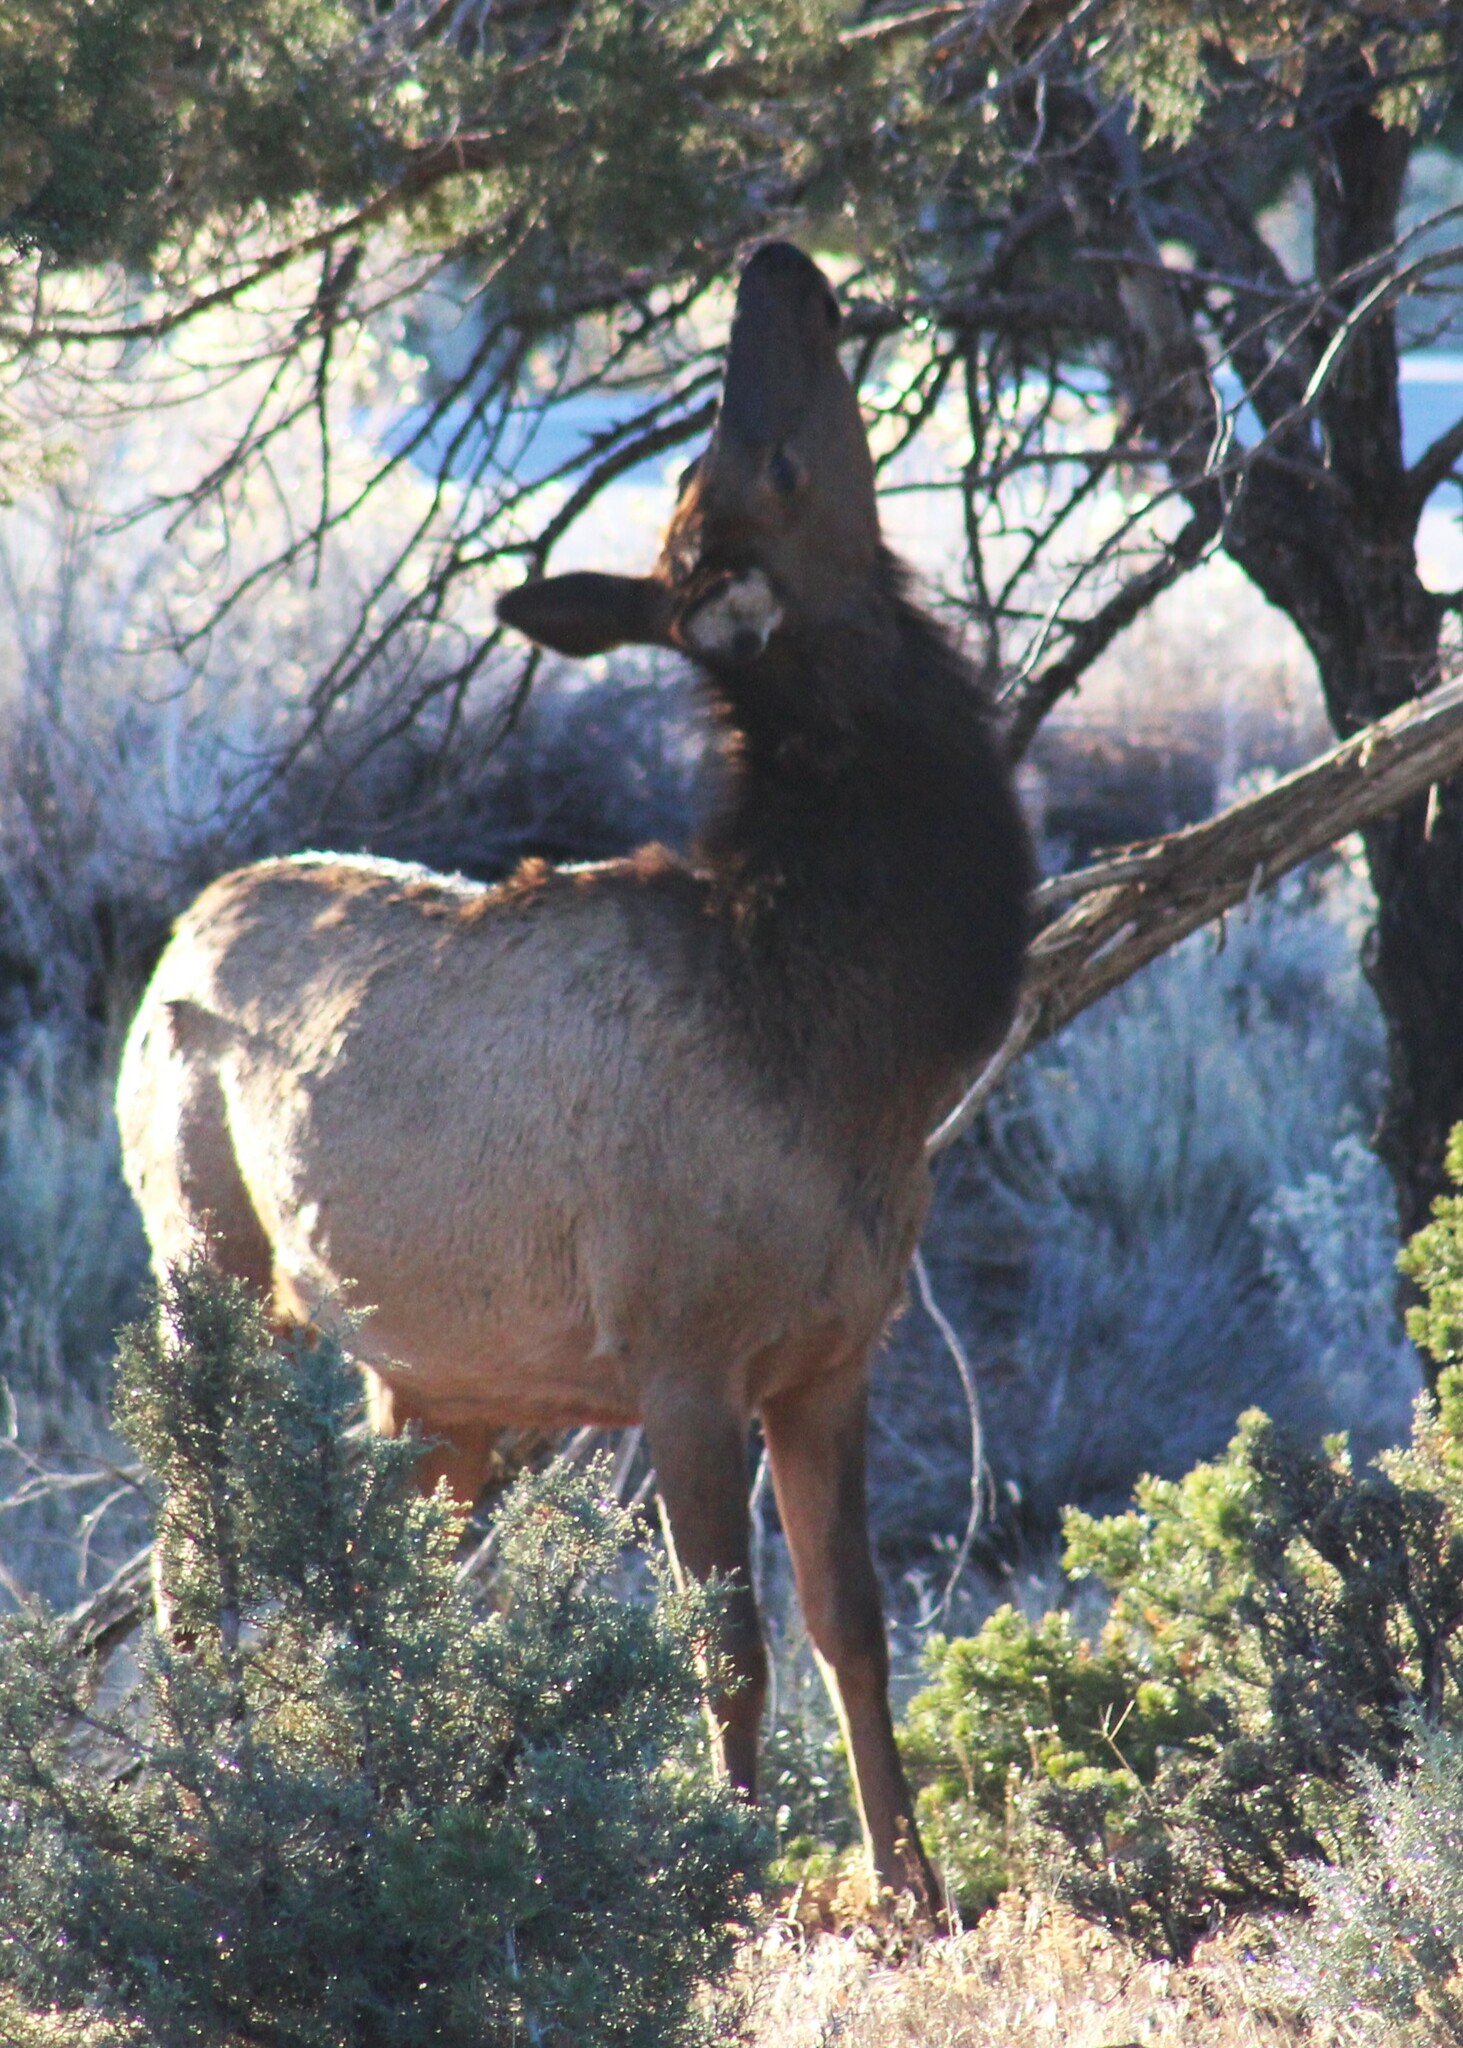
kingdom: Animalia
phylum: Chordata
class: Mammalia
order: Artiodactyla
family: Cervidae
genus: Cervus
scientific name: Cervus elaphus
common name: Red deer
